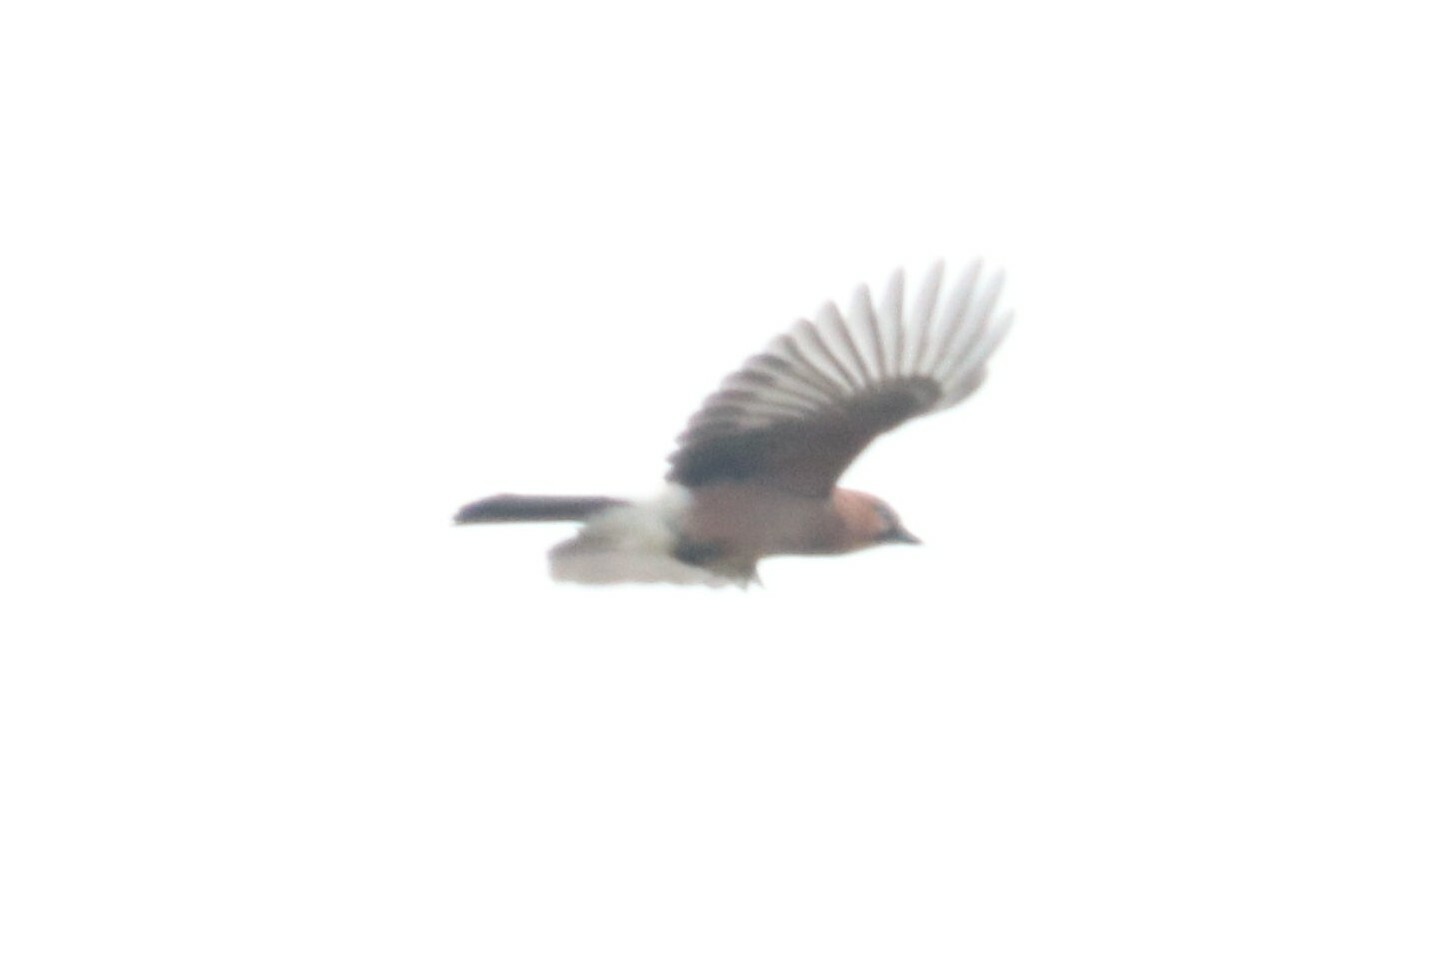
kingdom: Animalia
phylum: Chordata
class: Aves
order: Passeriformes
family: Corvidae
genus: Garrulus
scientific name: Garrulus glandarius
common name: Eurasian jay
